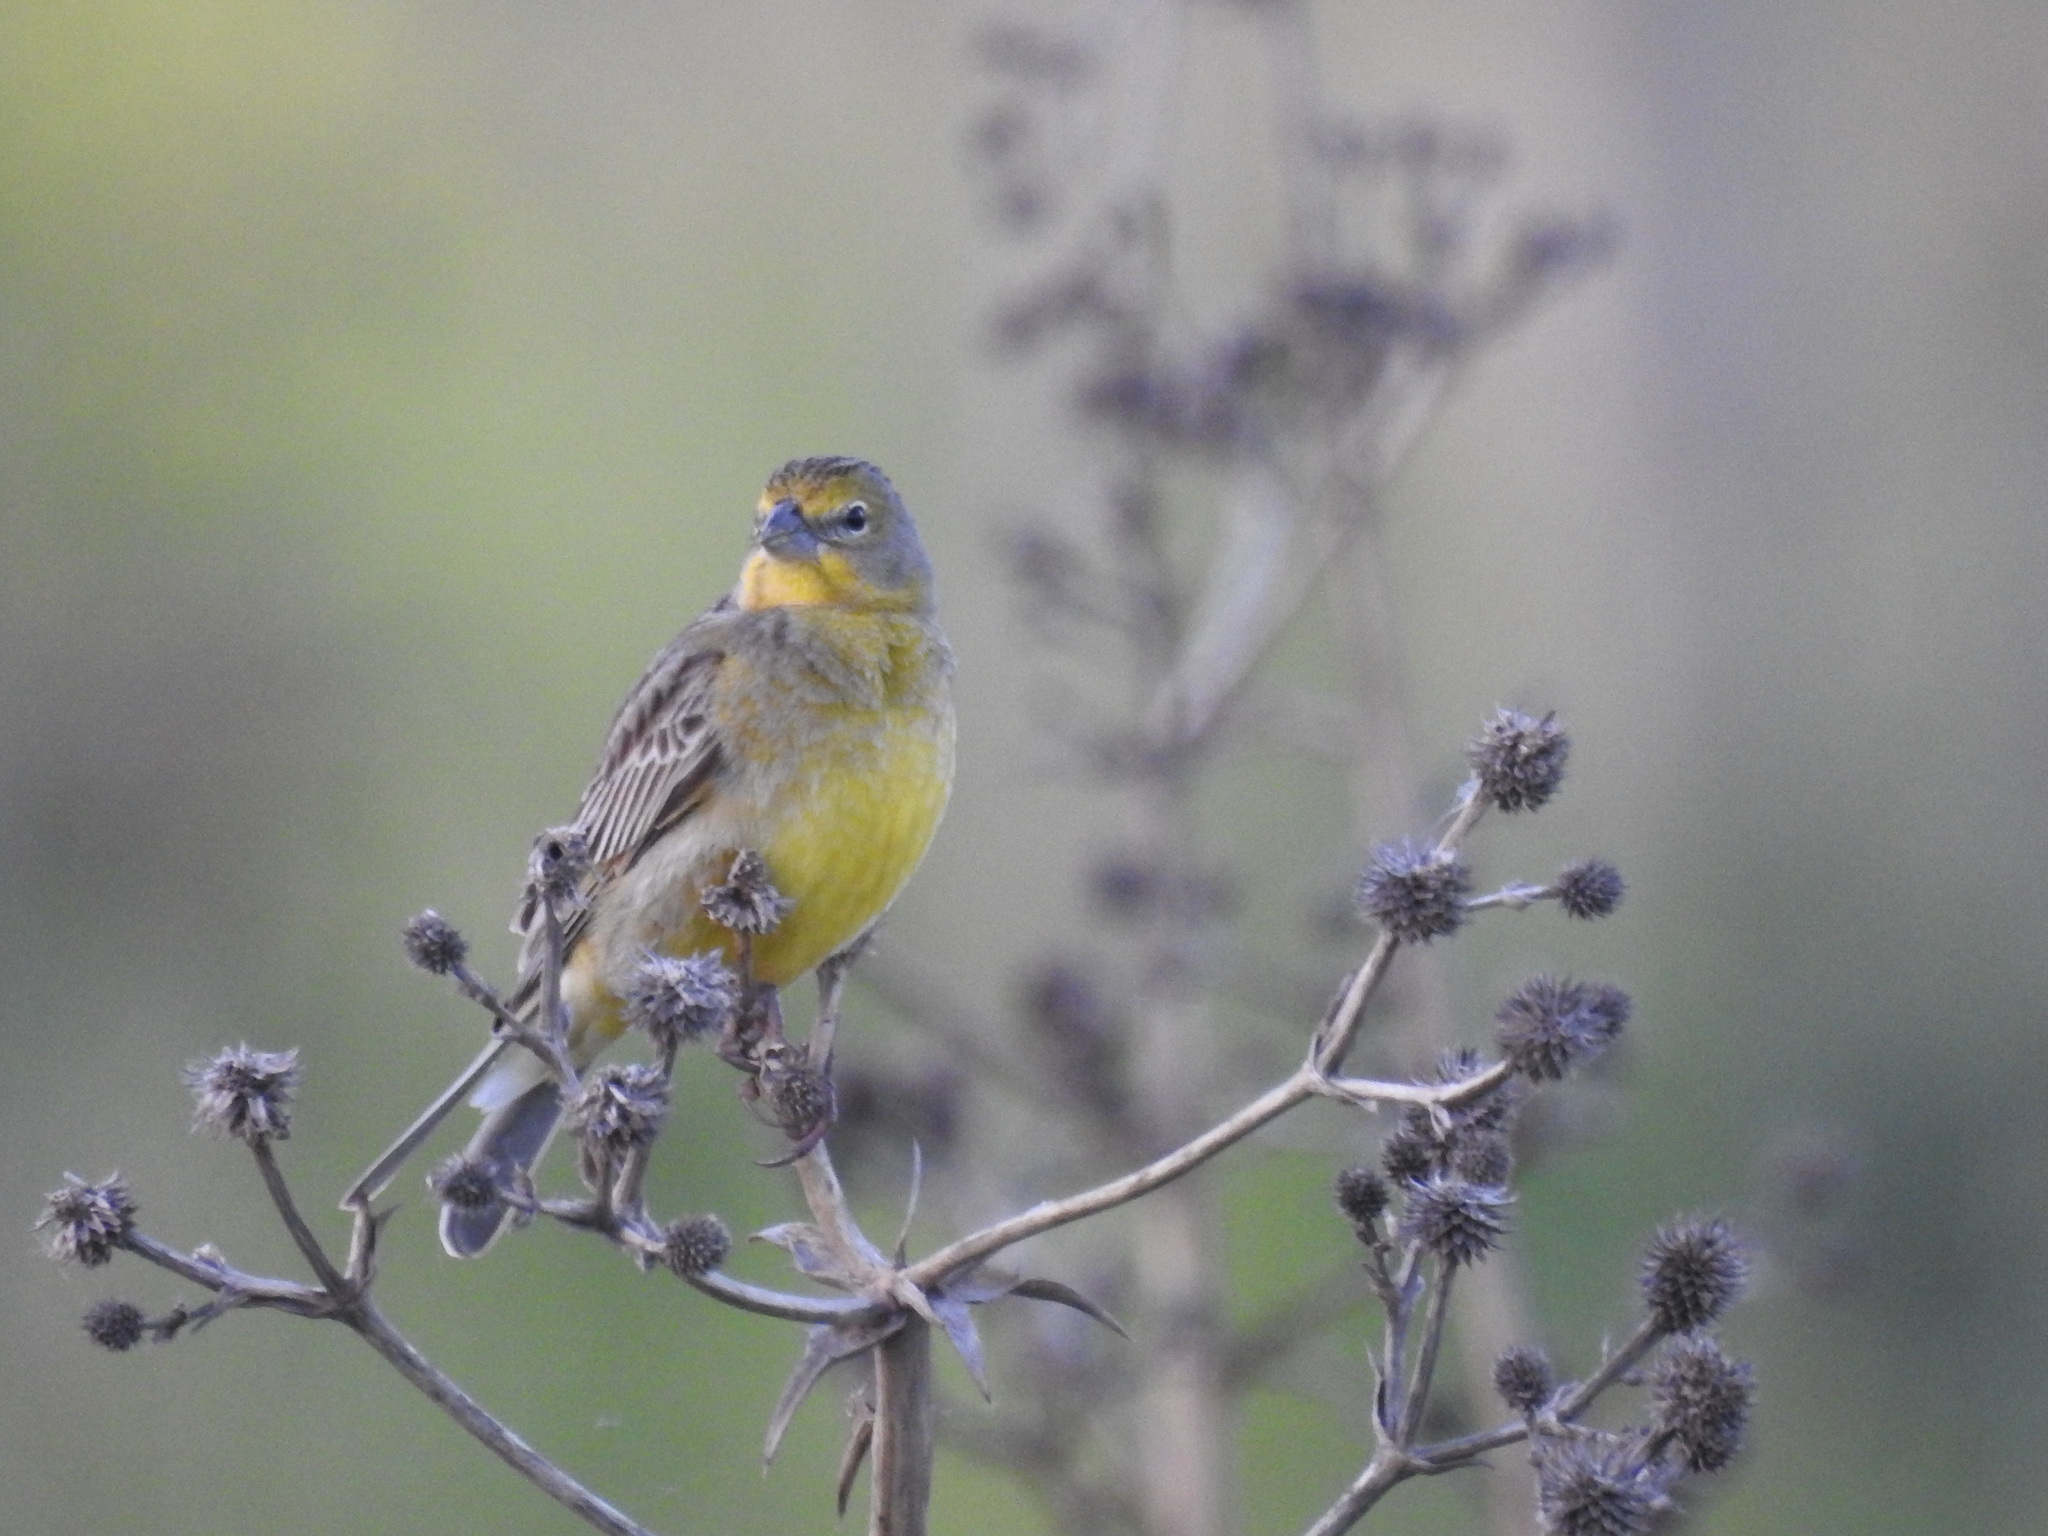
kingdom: Animalia
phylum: Chordata
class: Aves
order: Passeriformes
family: Thraupidae
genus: Sicalis
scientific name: Sicalis luteola
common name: Grassland yellow-finch
